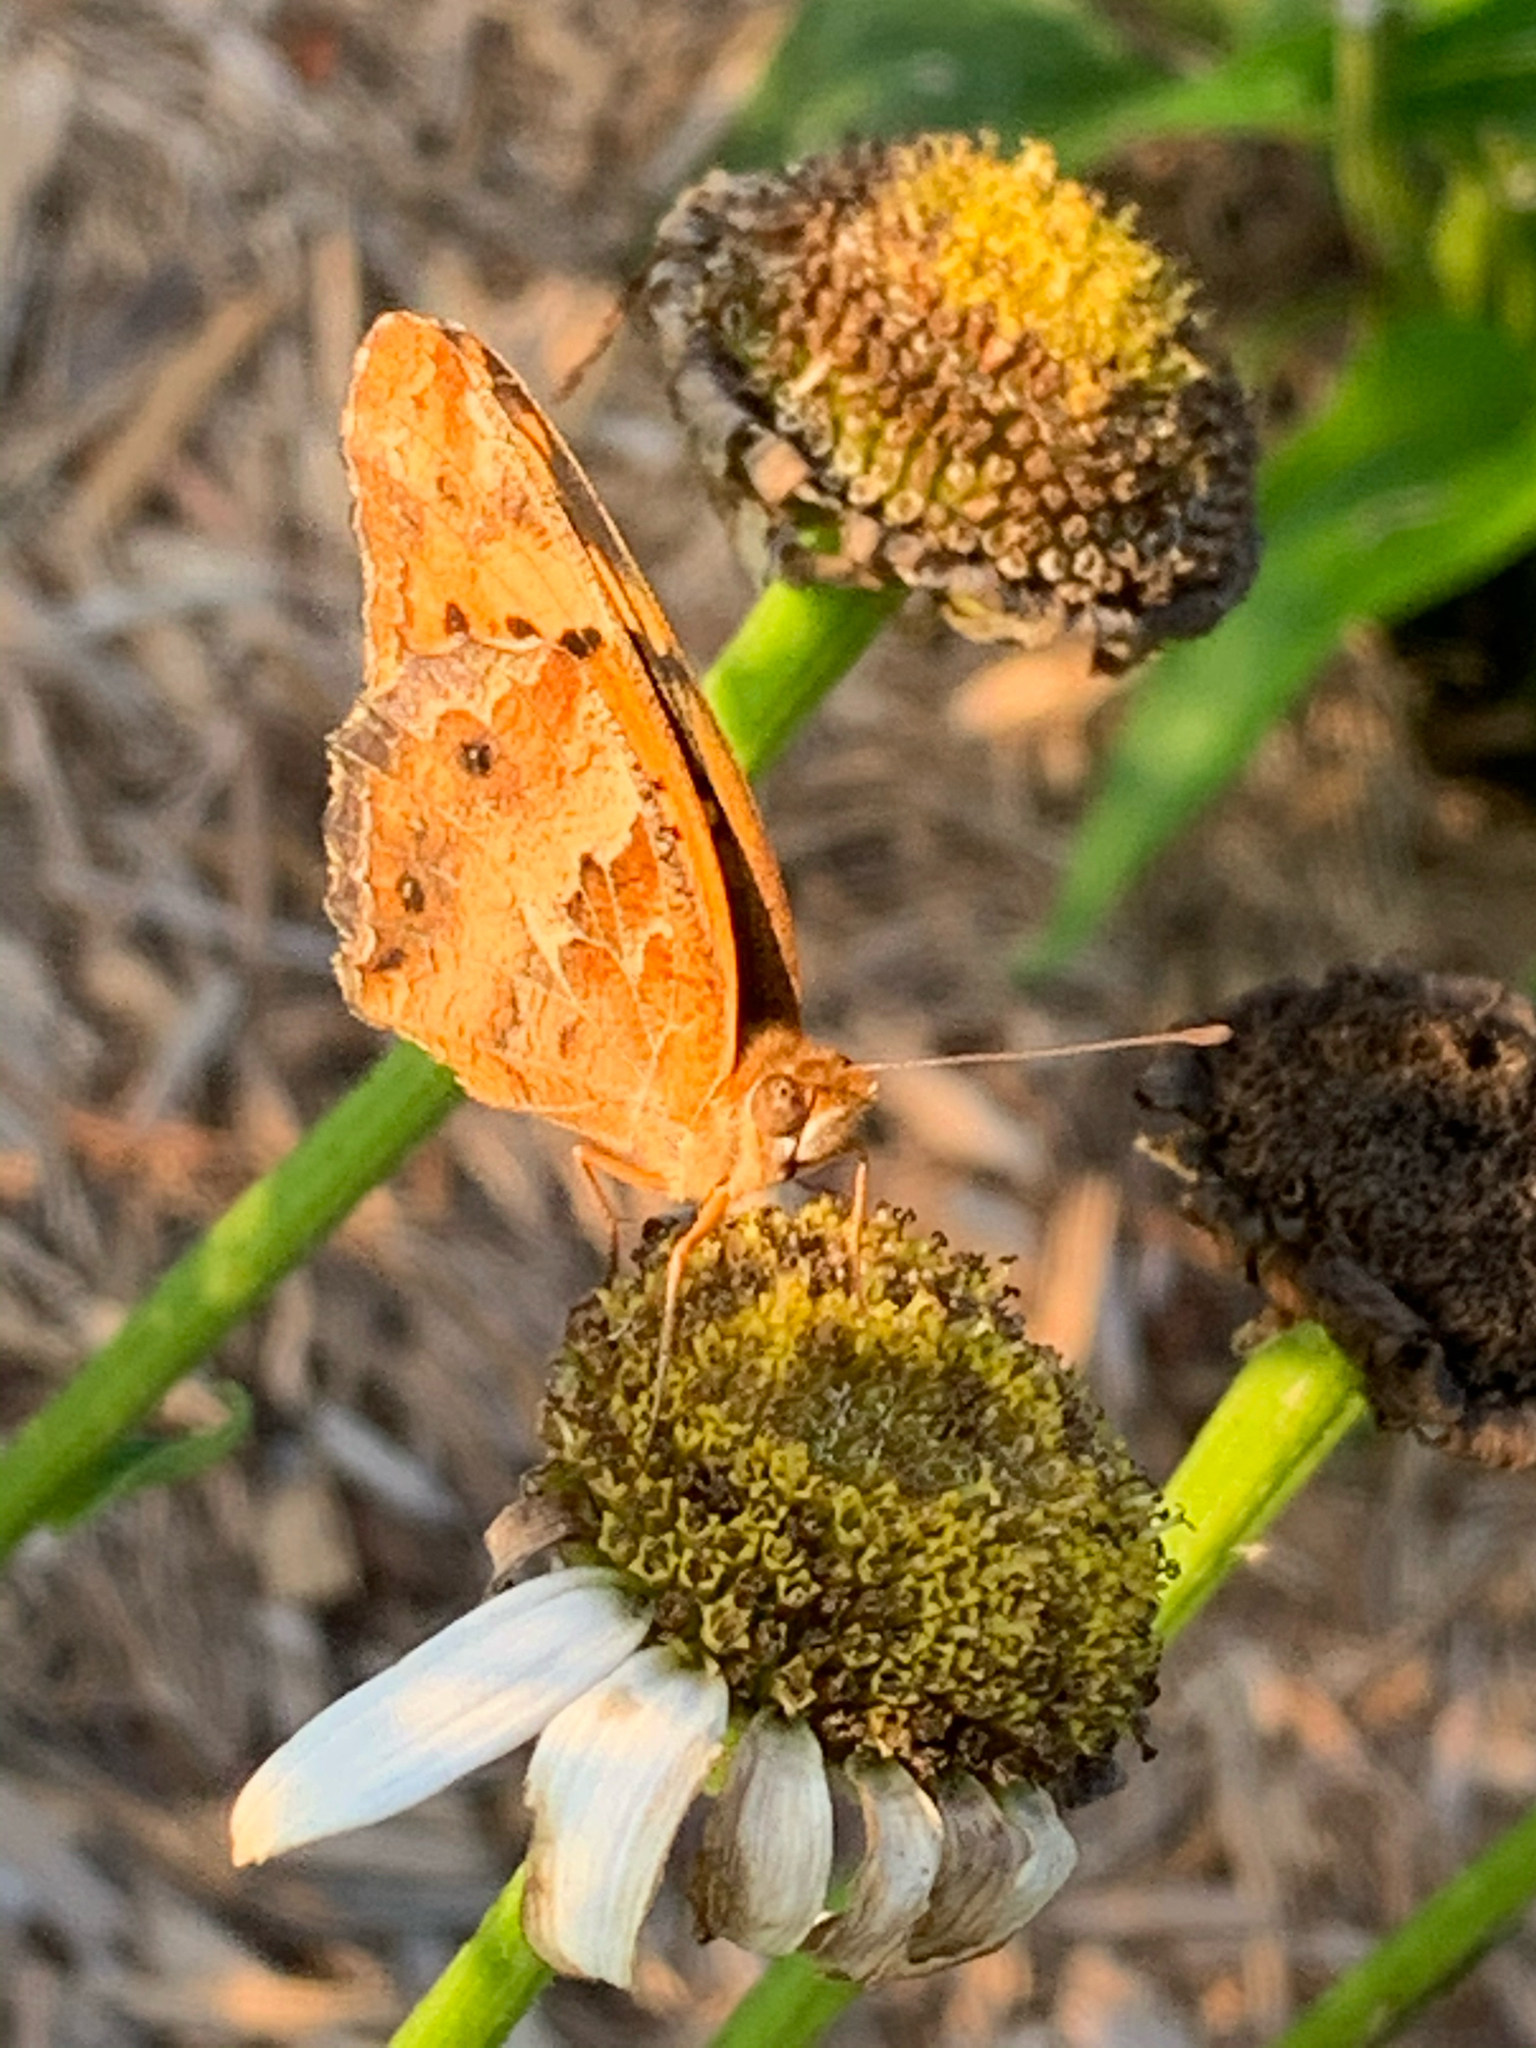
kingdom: Animalia
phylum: Arthropoda
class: Insecta
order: Lepidoptera
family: Nymphalidae
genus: Euptoieta
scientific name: Euptoieta claudia
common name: Variegated fritillary
